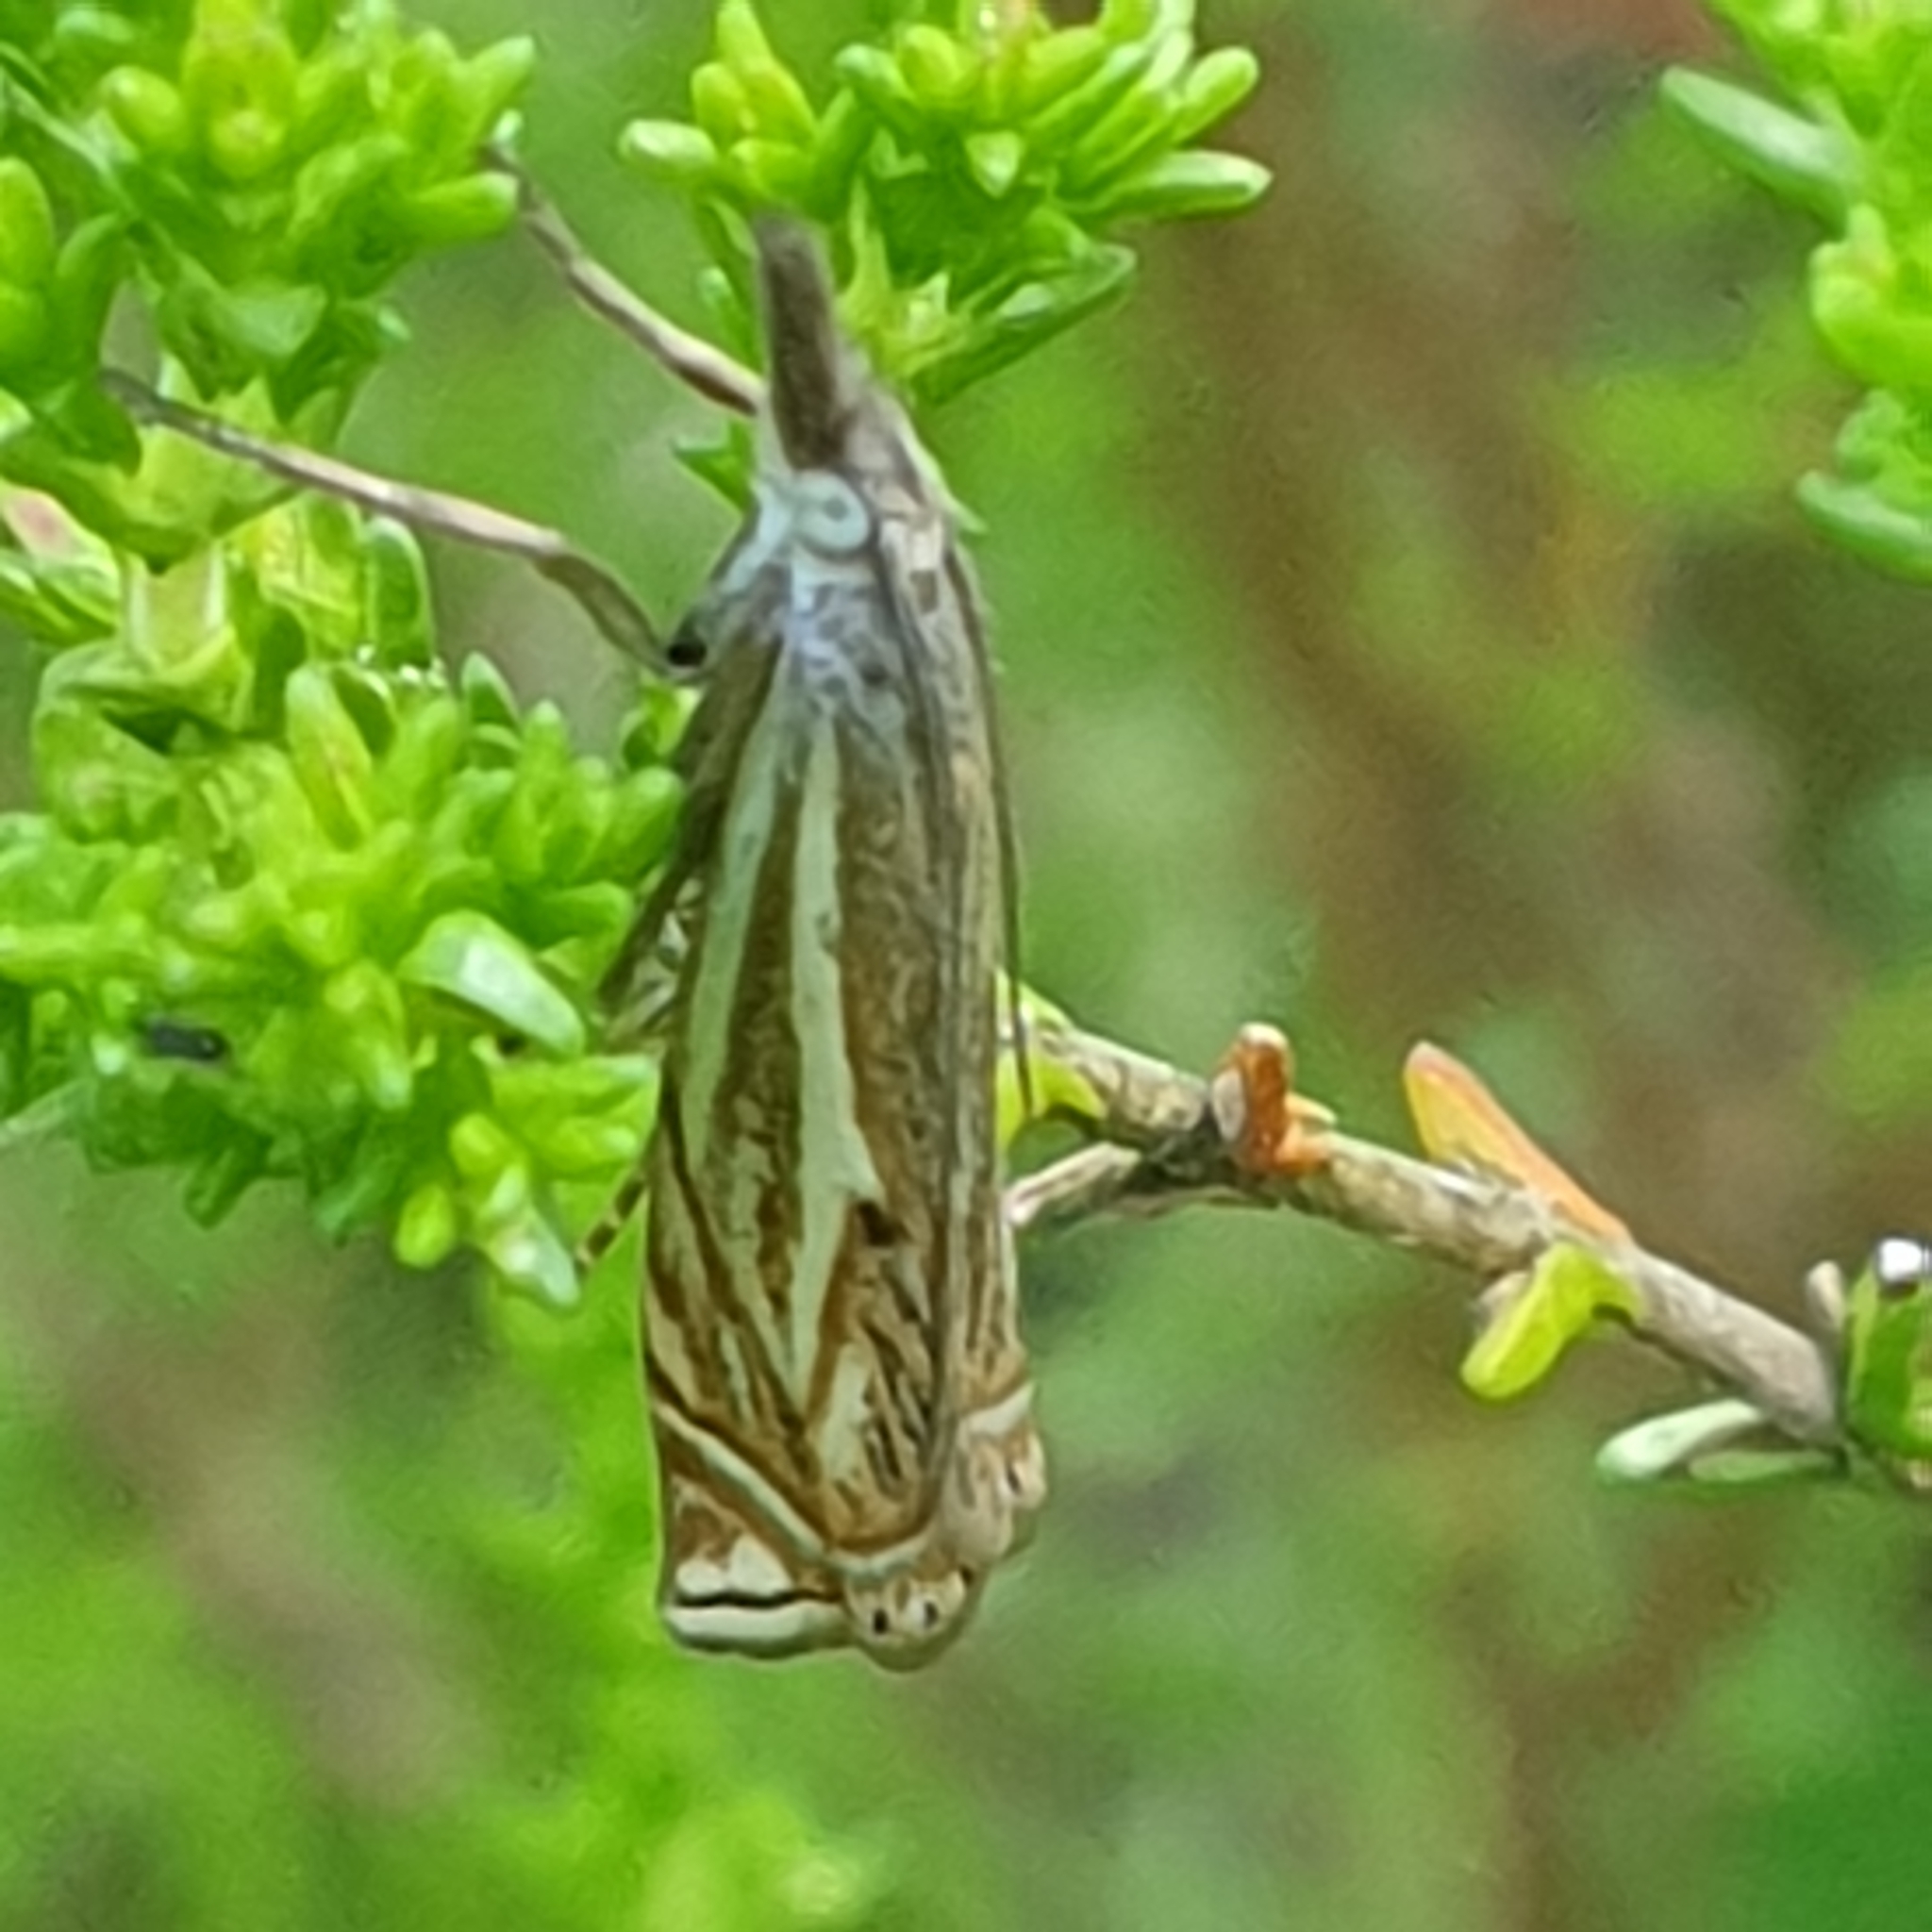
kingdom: Animalia
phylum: Arthropoda
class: Insecta
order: Lepidoptera
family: Crambidae
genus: Crambus
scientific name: Crambus nemorella
